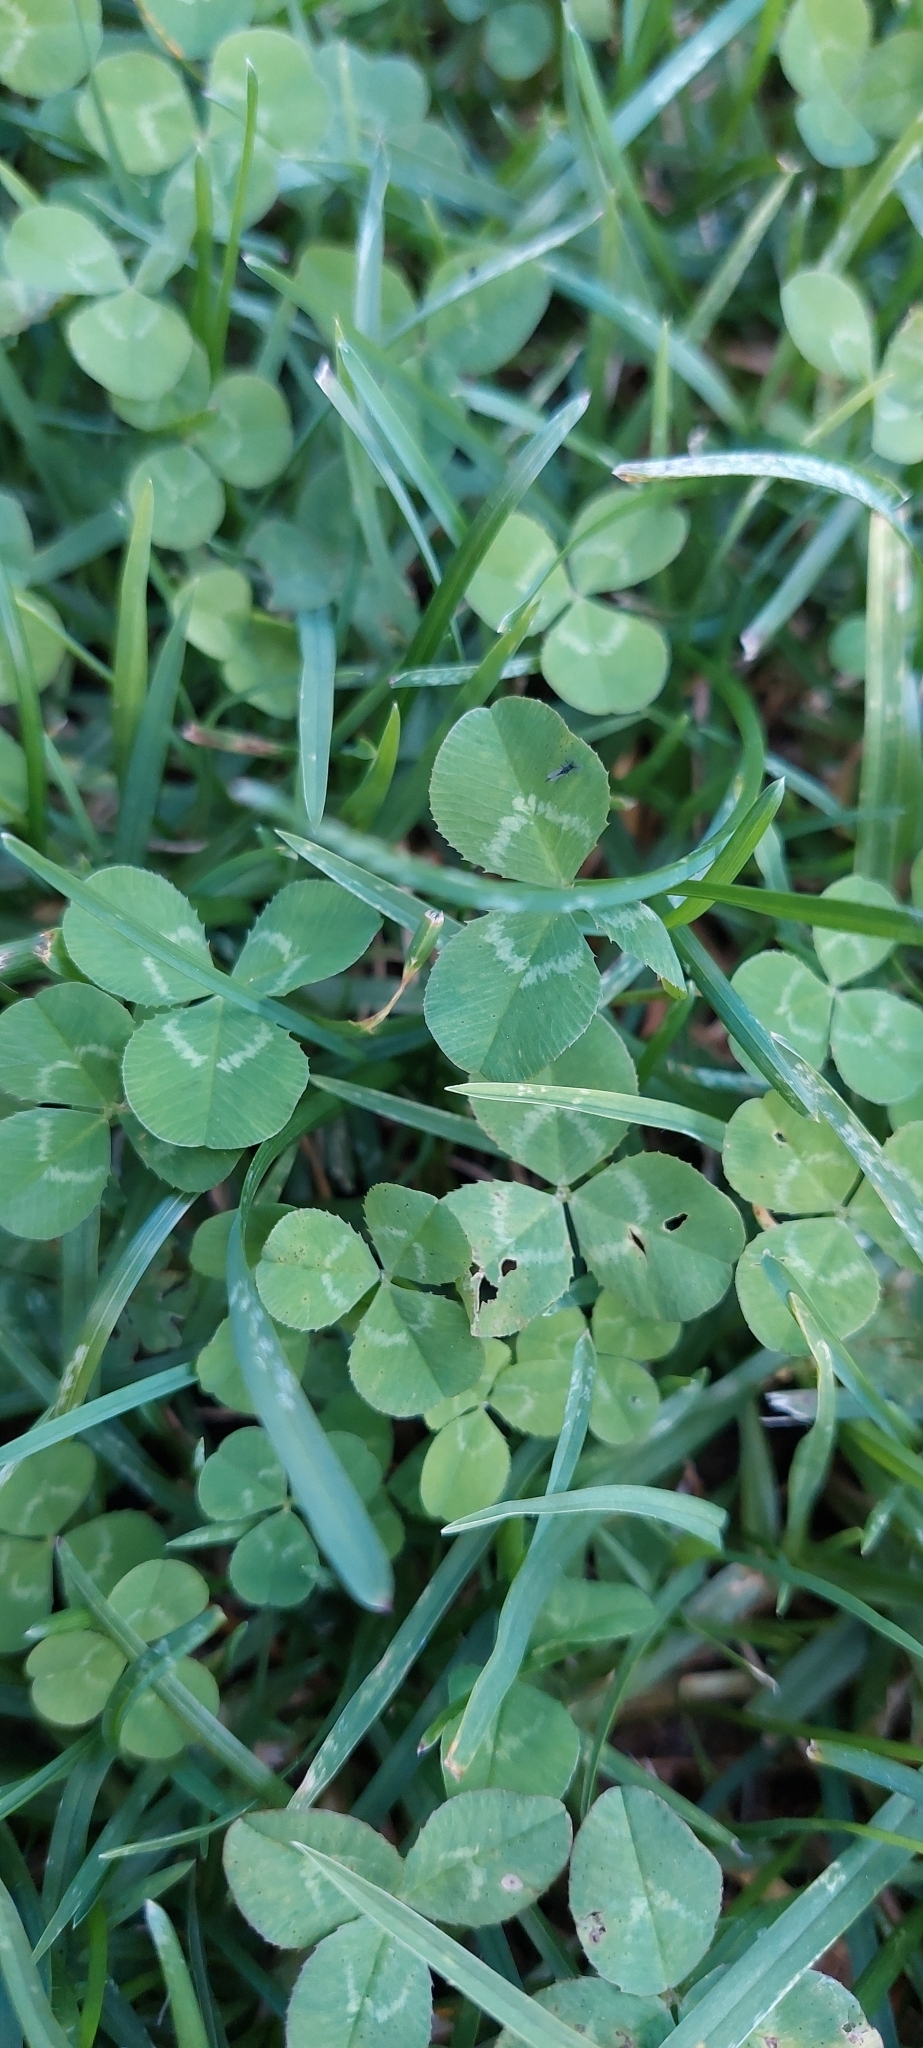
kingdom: Plantae
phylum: Tracheophyta
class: Magnoliopsida
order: Fabales
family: Fabaceae
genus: Trifolium
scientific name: Trifolium repens
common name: White clover
